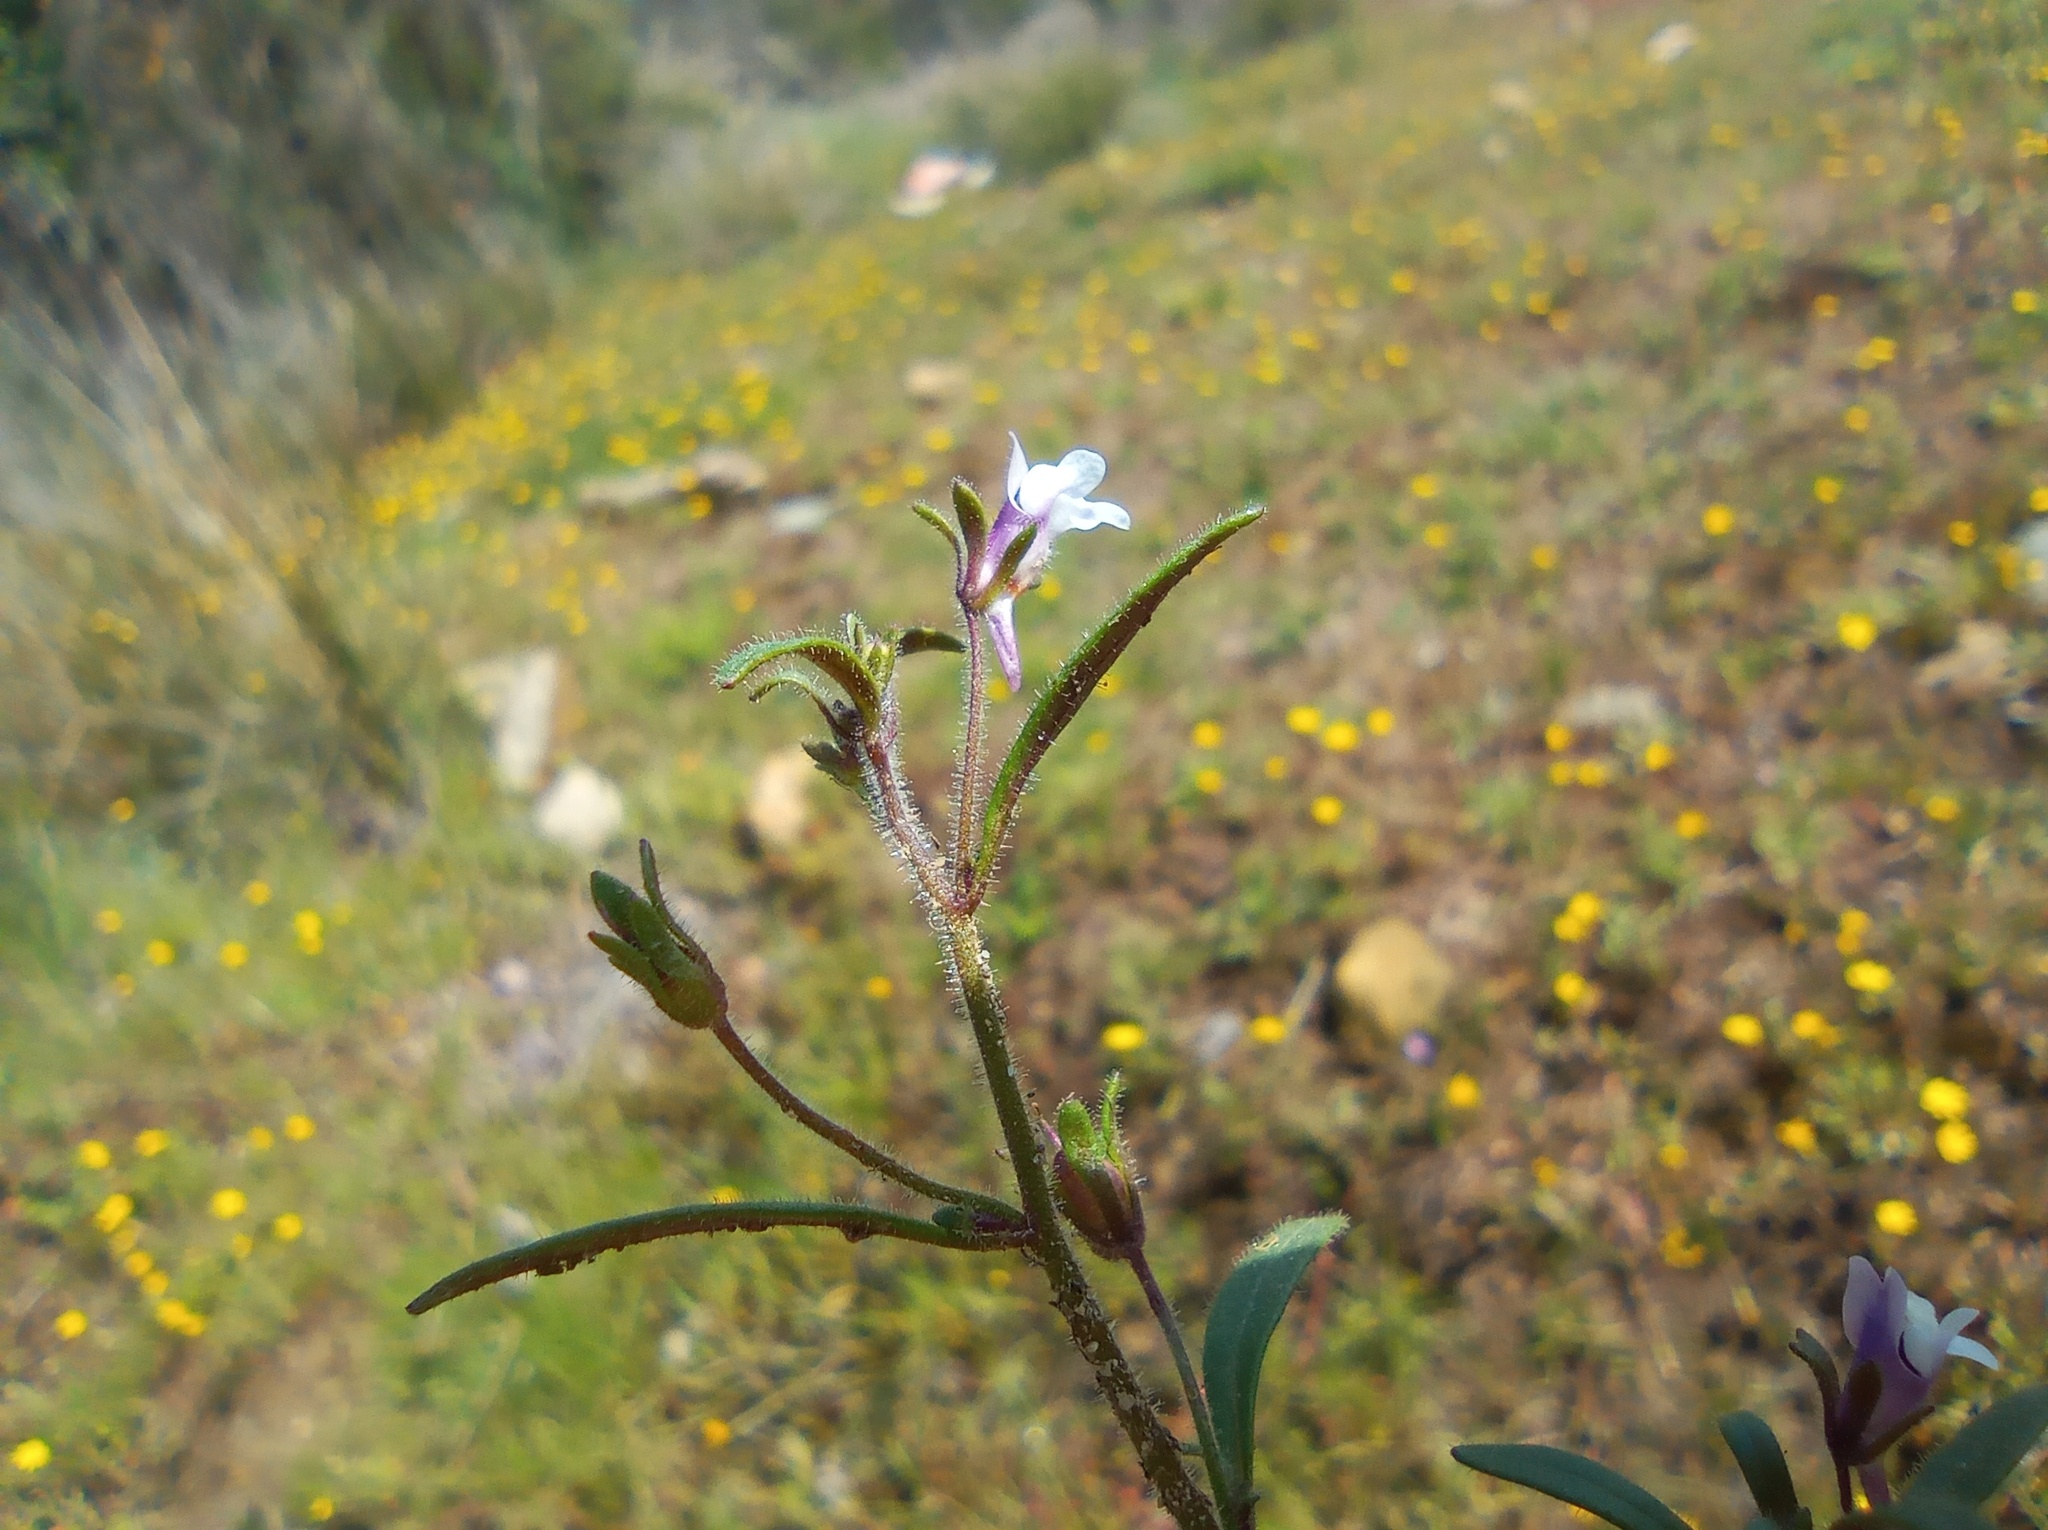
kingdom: Plantae
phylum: Tracheophyta
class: Magnoliopsida
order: Lamiales
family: Plantaginaceae
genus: Chaenorhinum
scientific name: Chaenorhinum minus
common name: Dwarf snapdragon
